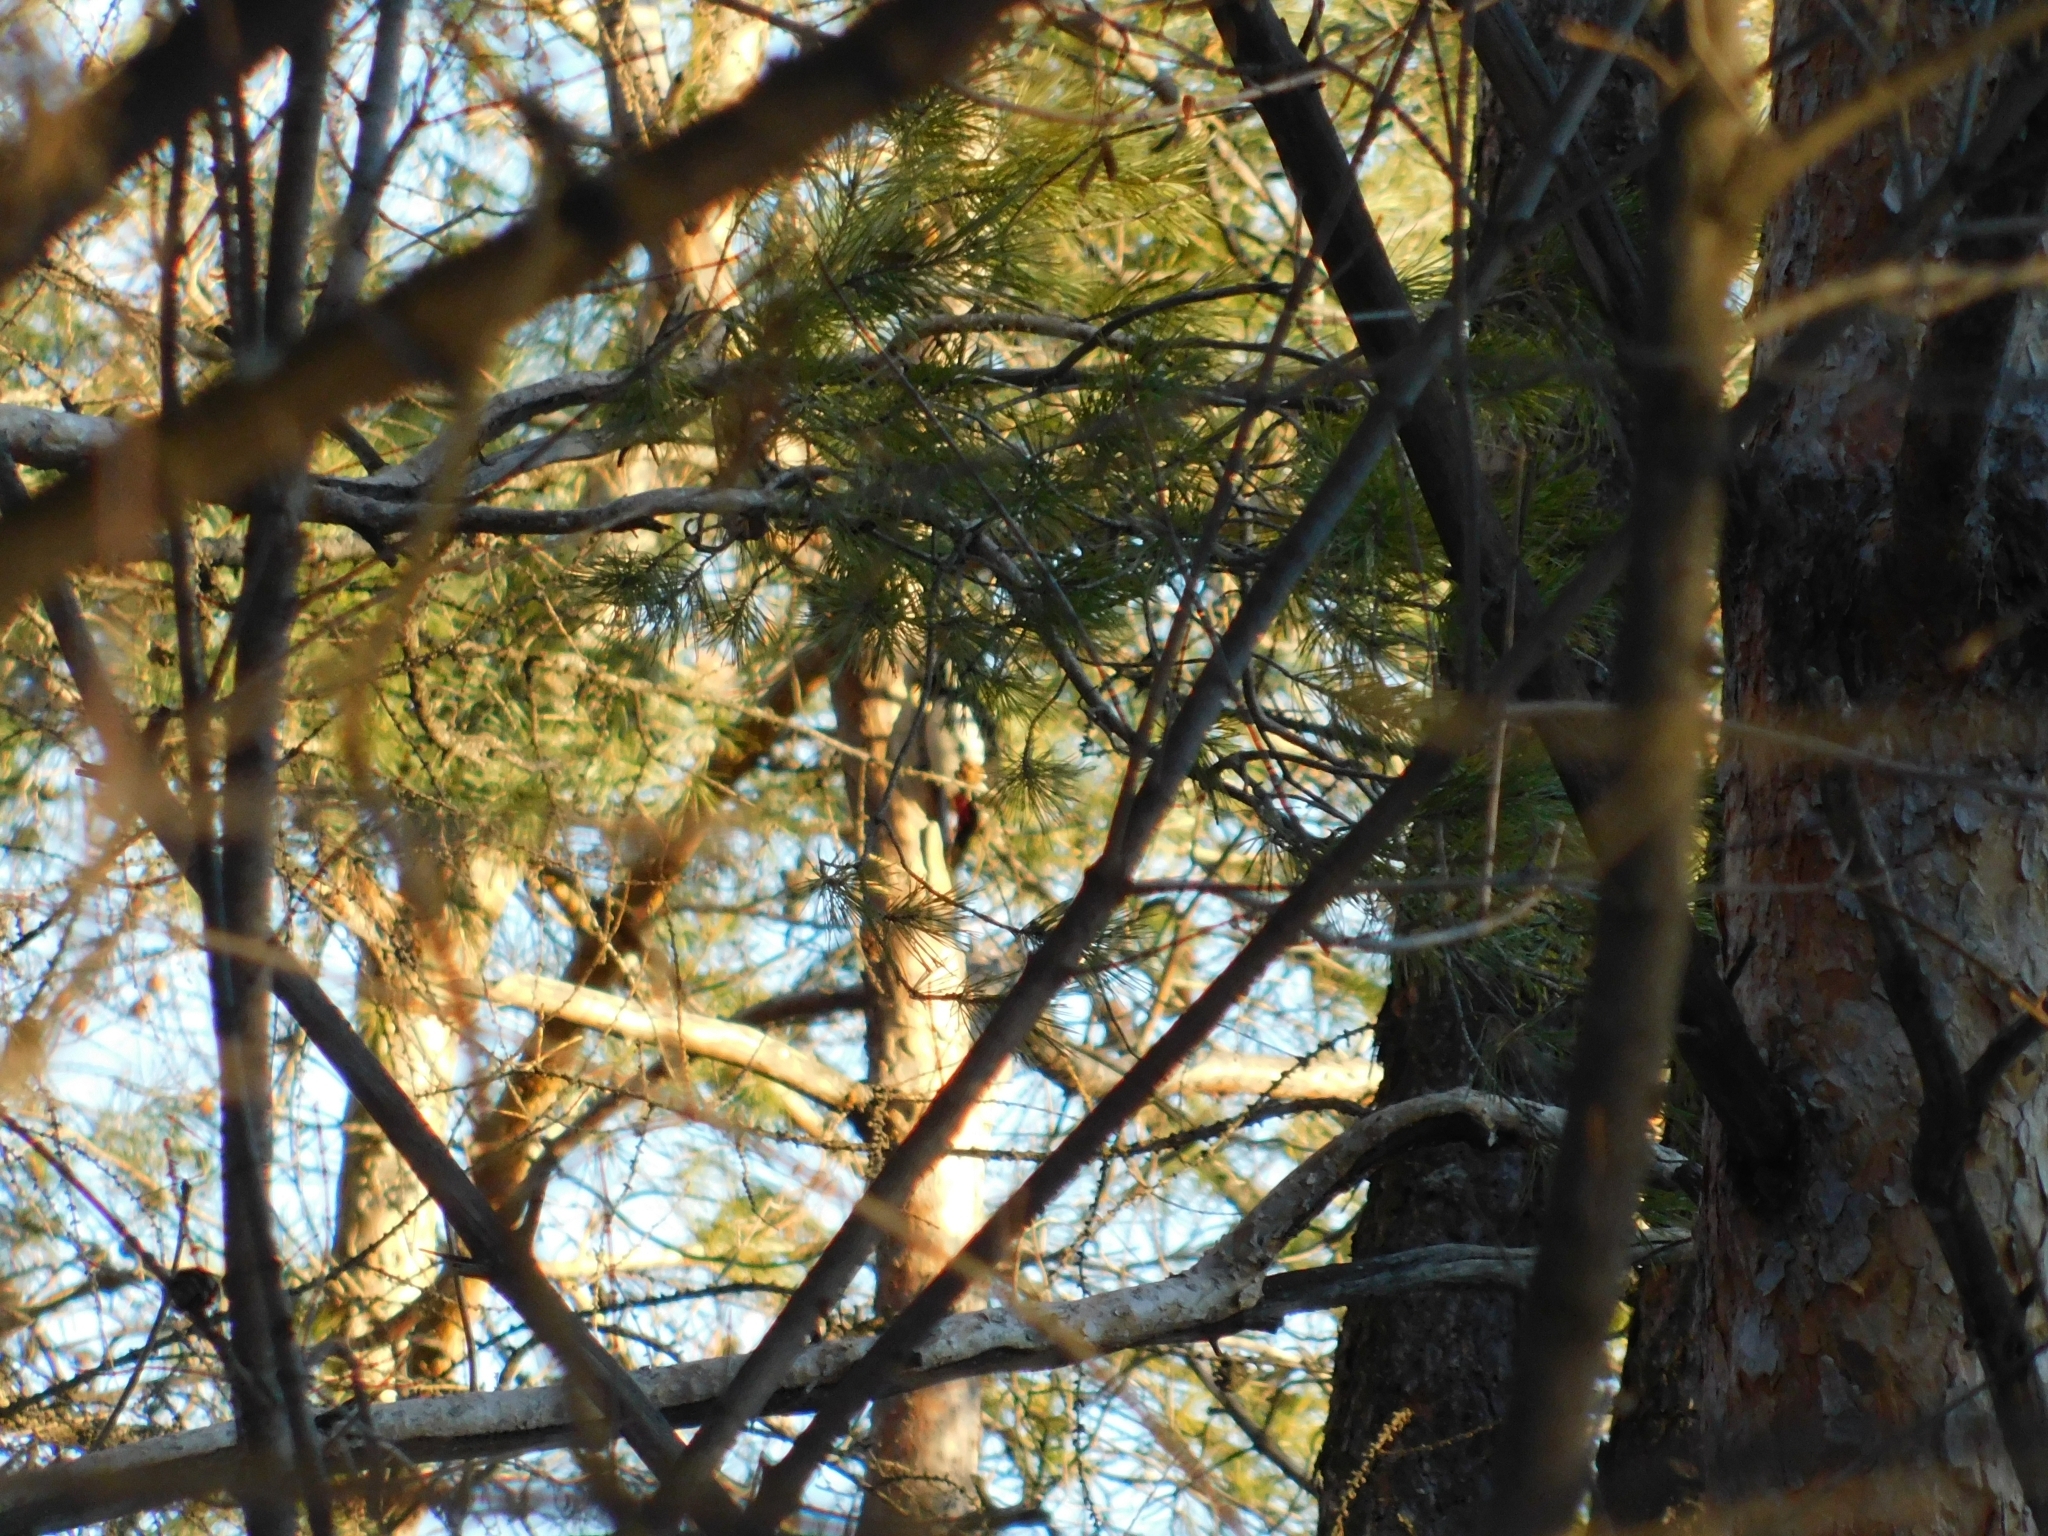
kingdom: Animalia
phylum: Chordata
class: Aves
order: Piciformes
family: Picidae
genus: Dendrocopos
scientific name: Dendrocopos major
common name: Great spotted woodpecker
